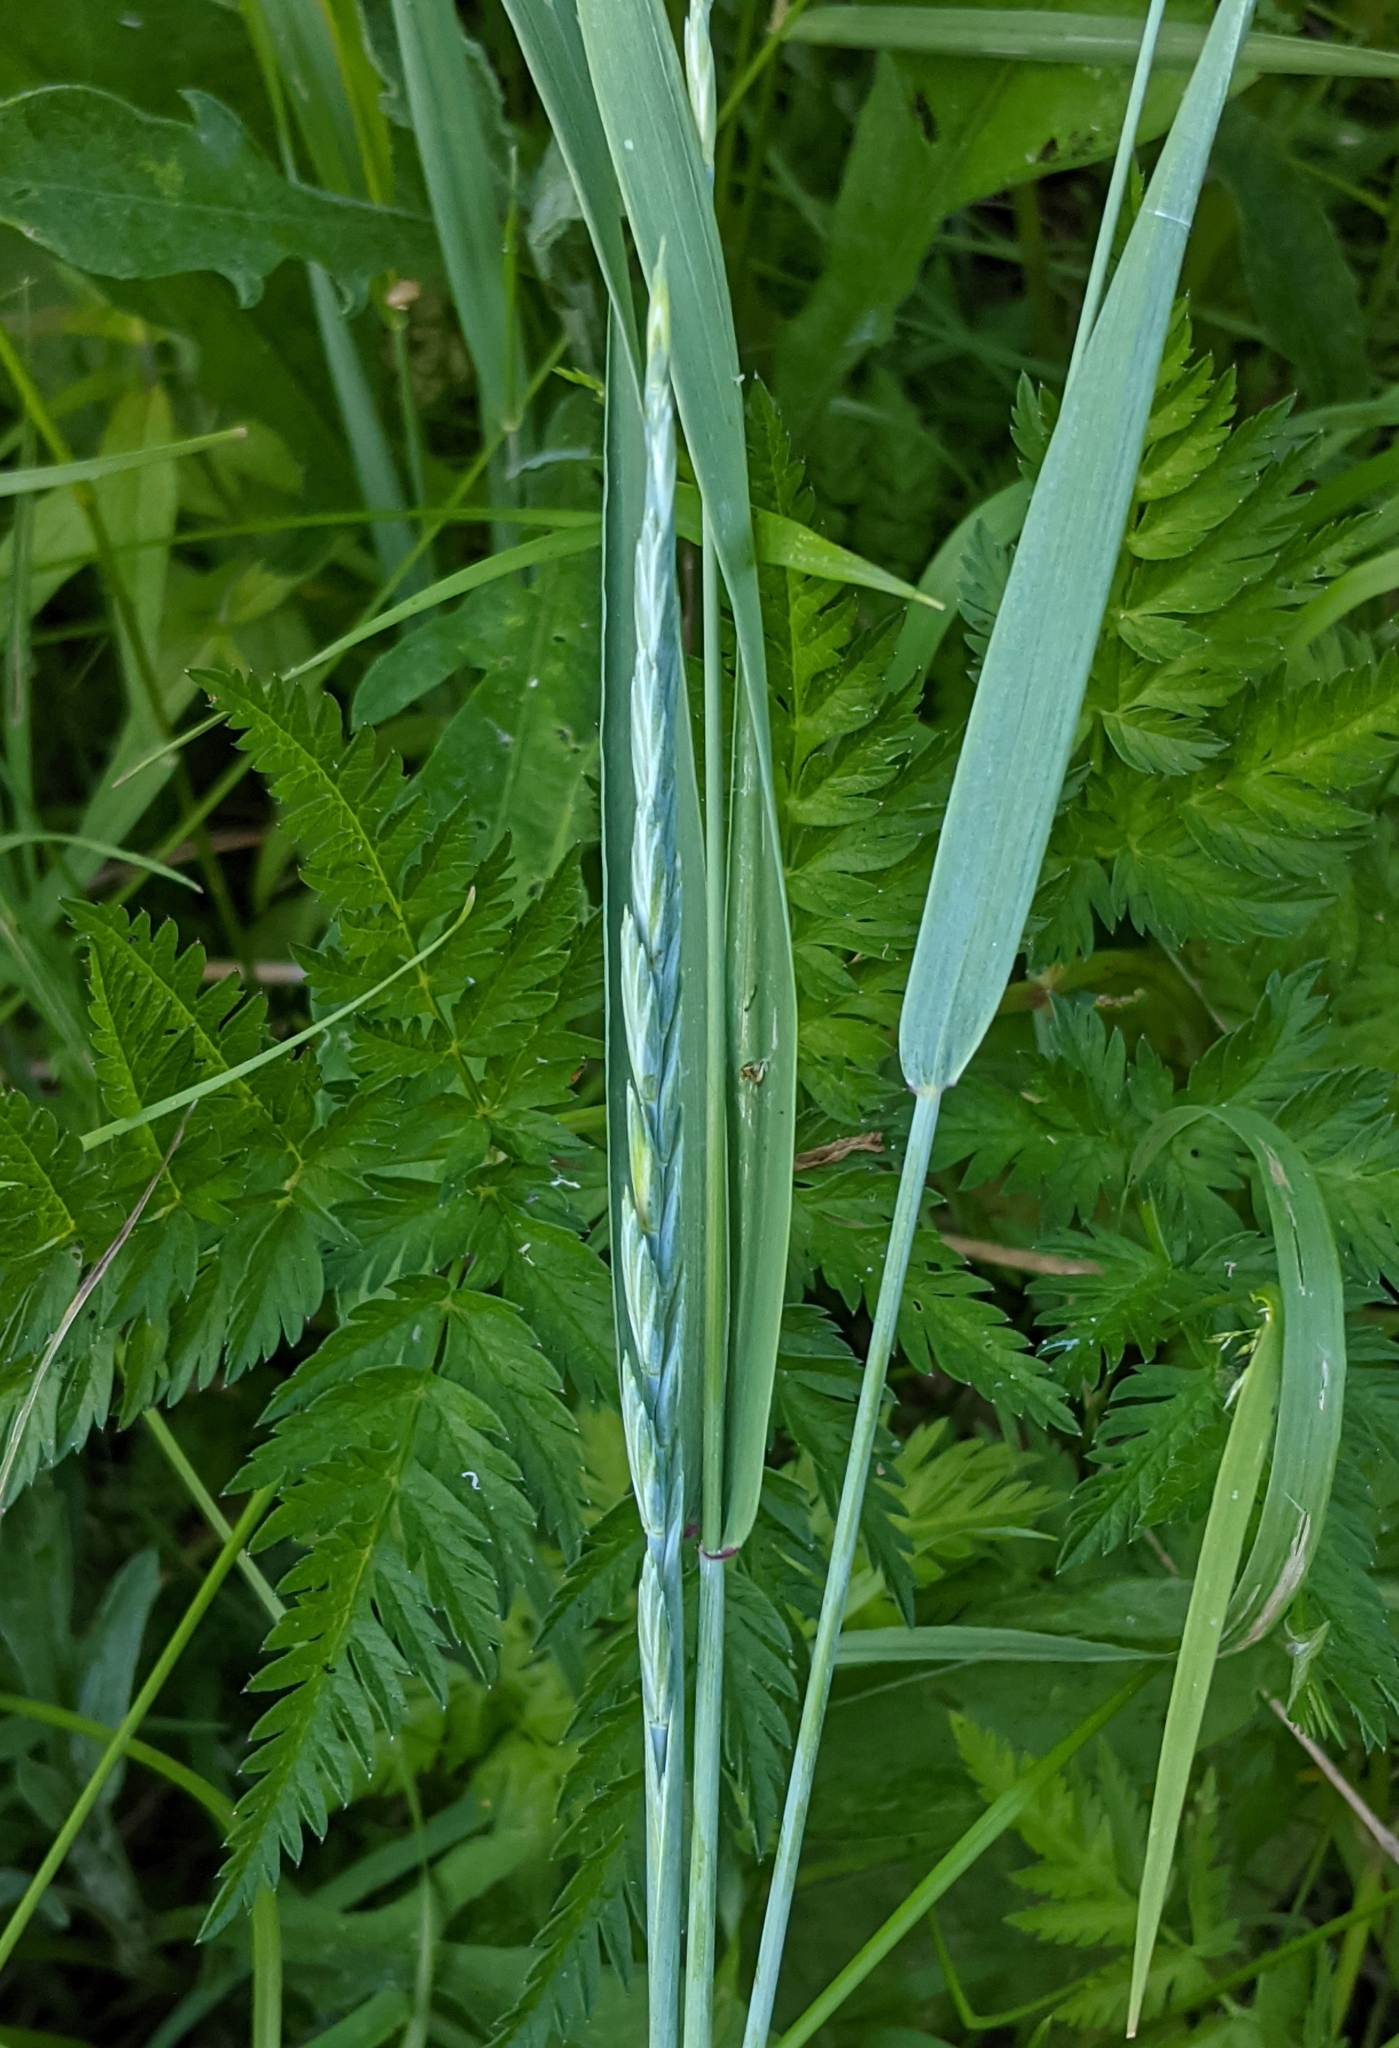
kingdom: Plantae
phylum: Tracheophyta
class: Liliopsida
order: Poales
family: Poaceae
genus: Elymus
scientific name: Elymus repens
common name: Quackgrass
